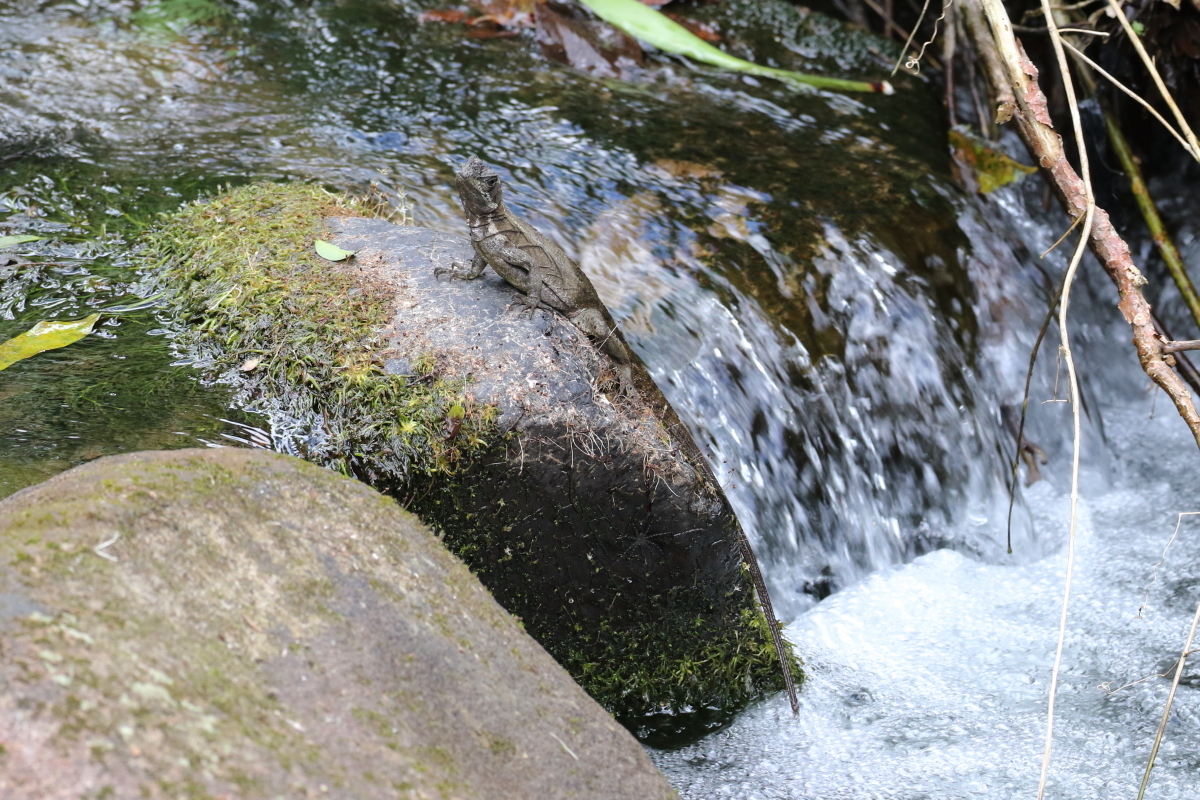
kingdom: Animalia
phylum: Chordata
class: Squamata
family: Corytophanidae
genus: Basiliscus
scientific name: Basiliscus basiliscus
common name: Common basilisk
